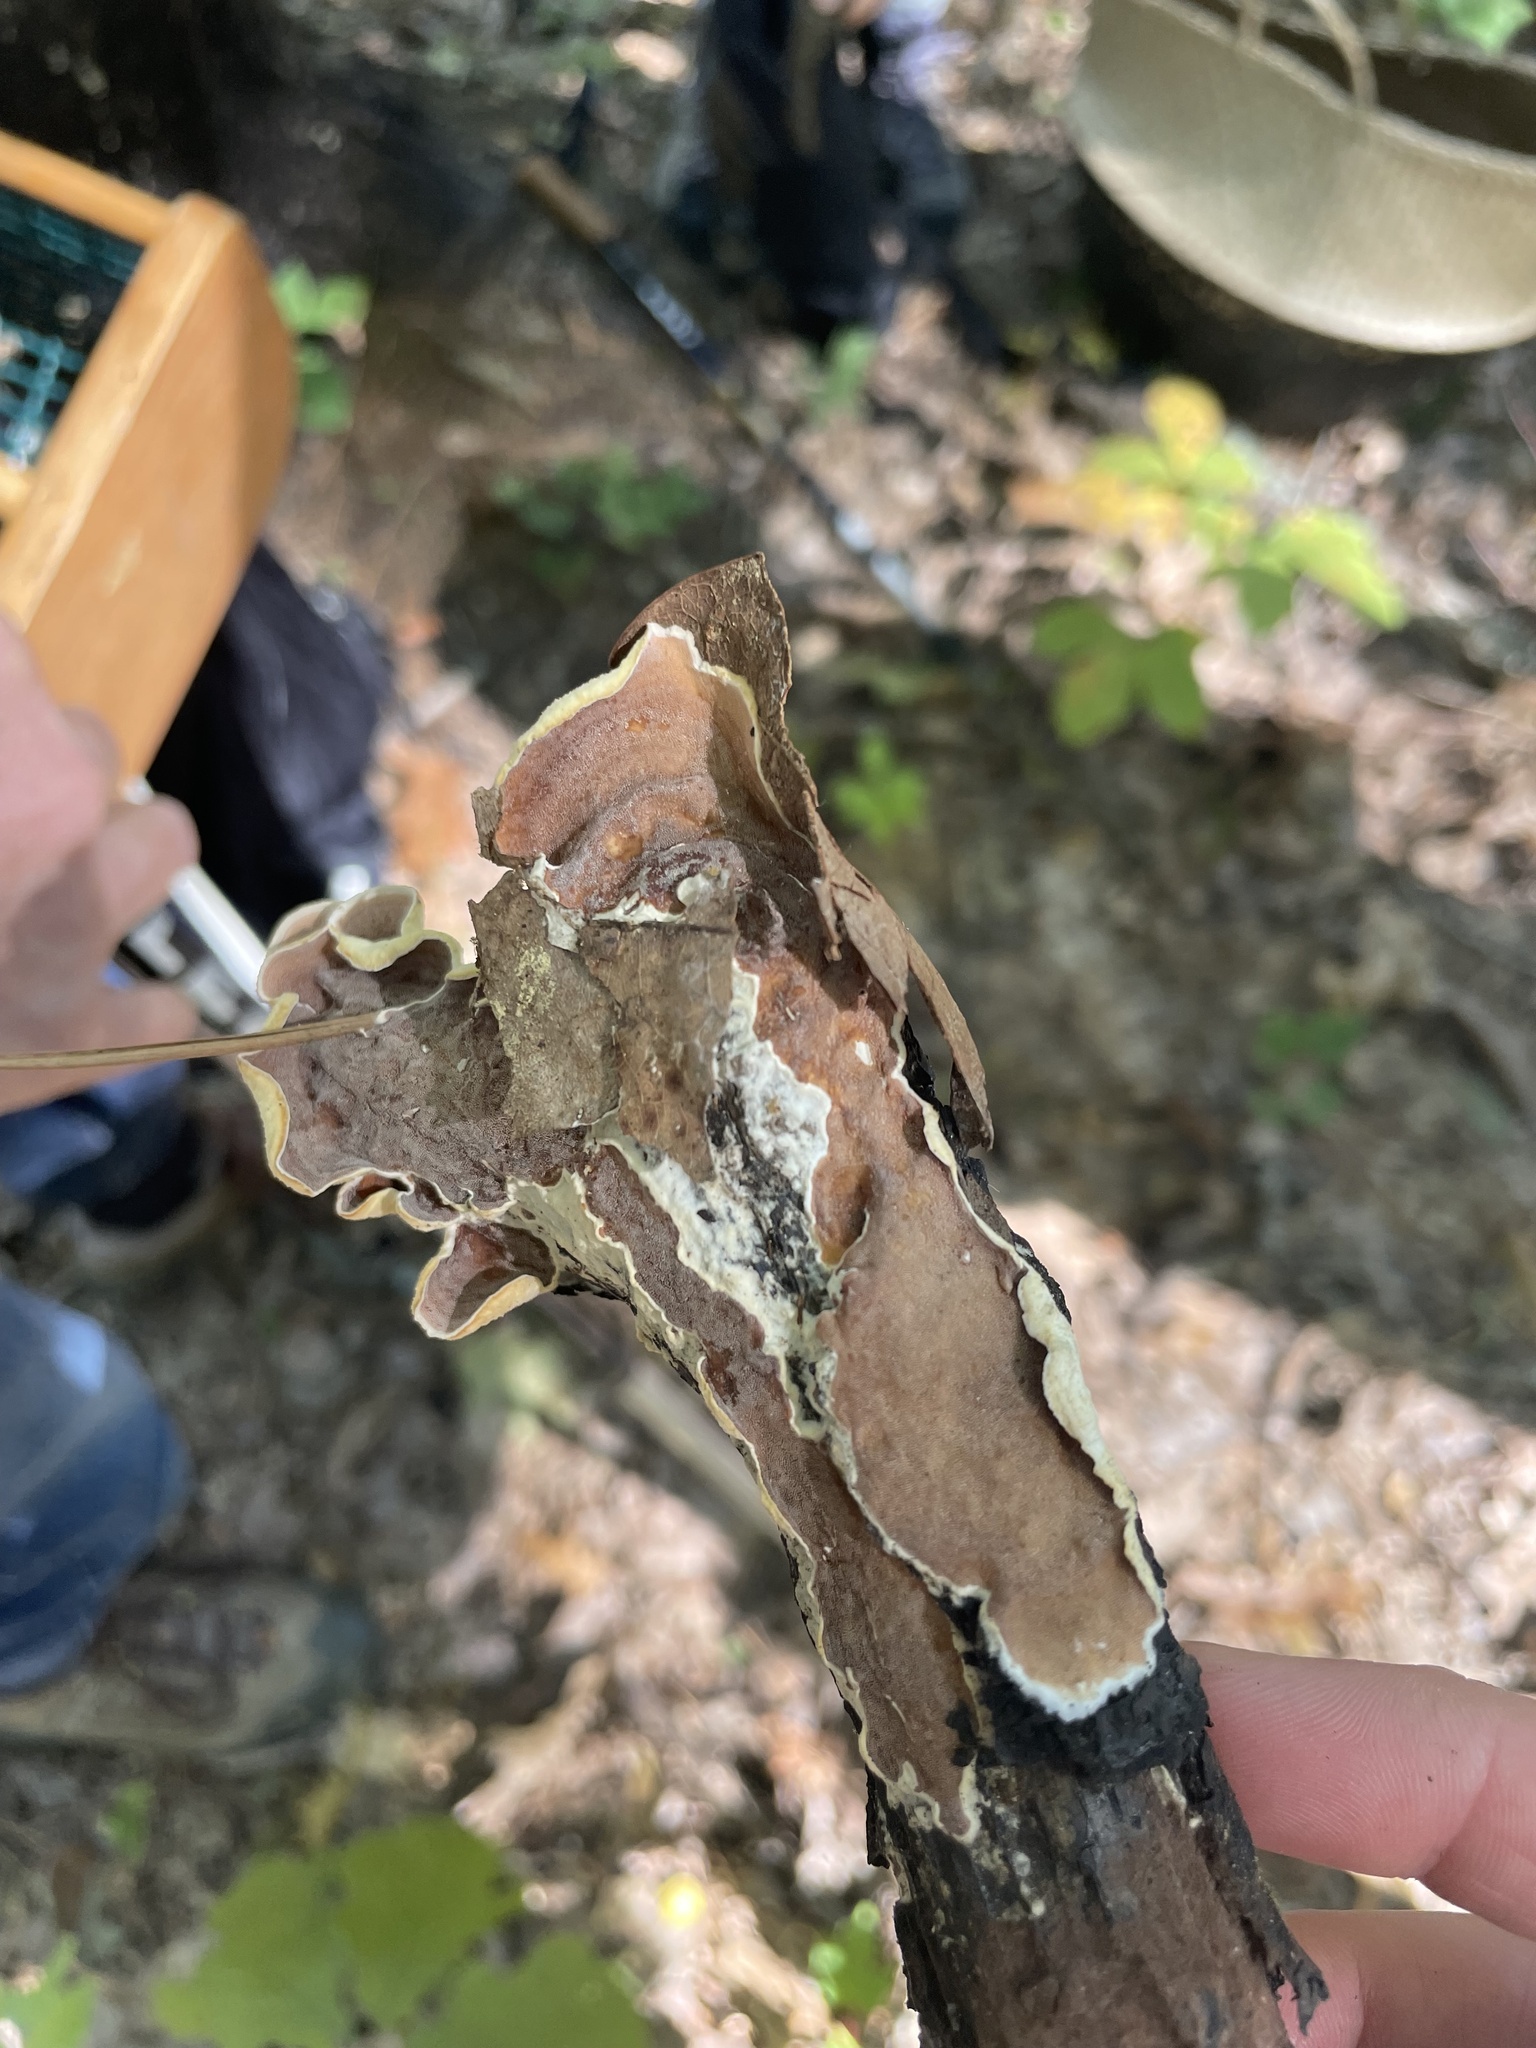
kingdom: Fungi
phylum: Basidiomycota
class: Agaricomycetes
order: Polyporales
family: Irpicaceae
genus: Vitreoporus
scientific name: Vitreoporus dichrous
